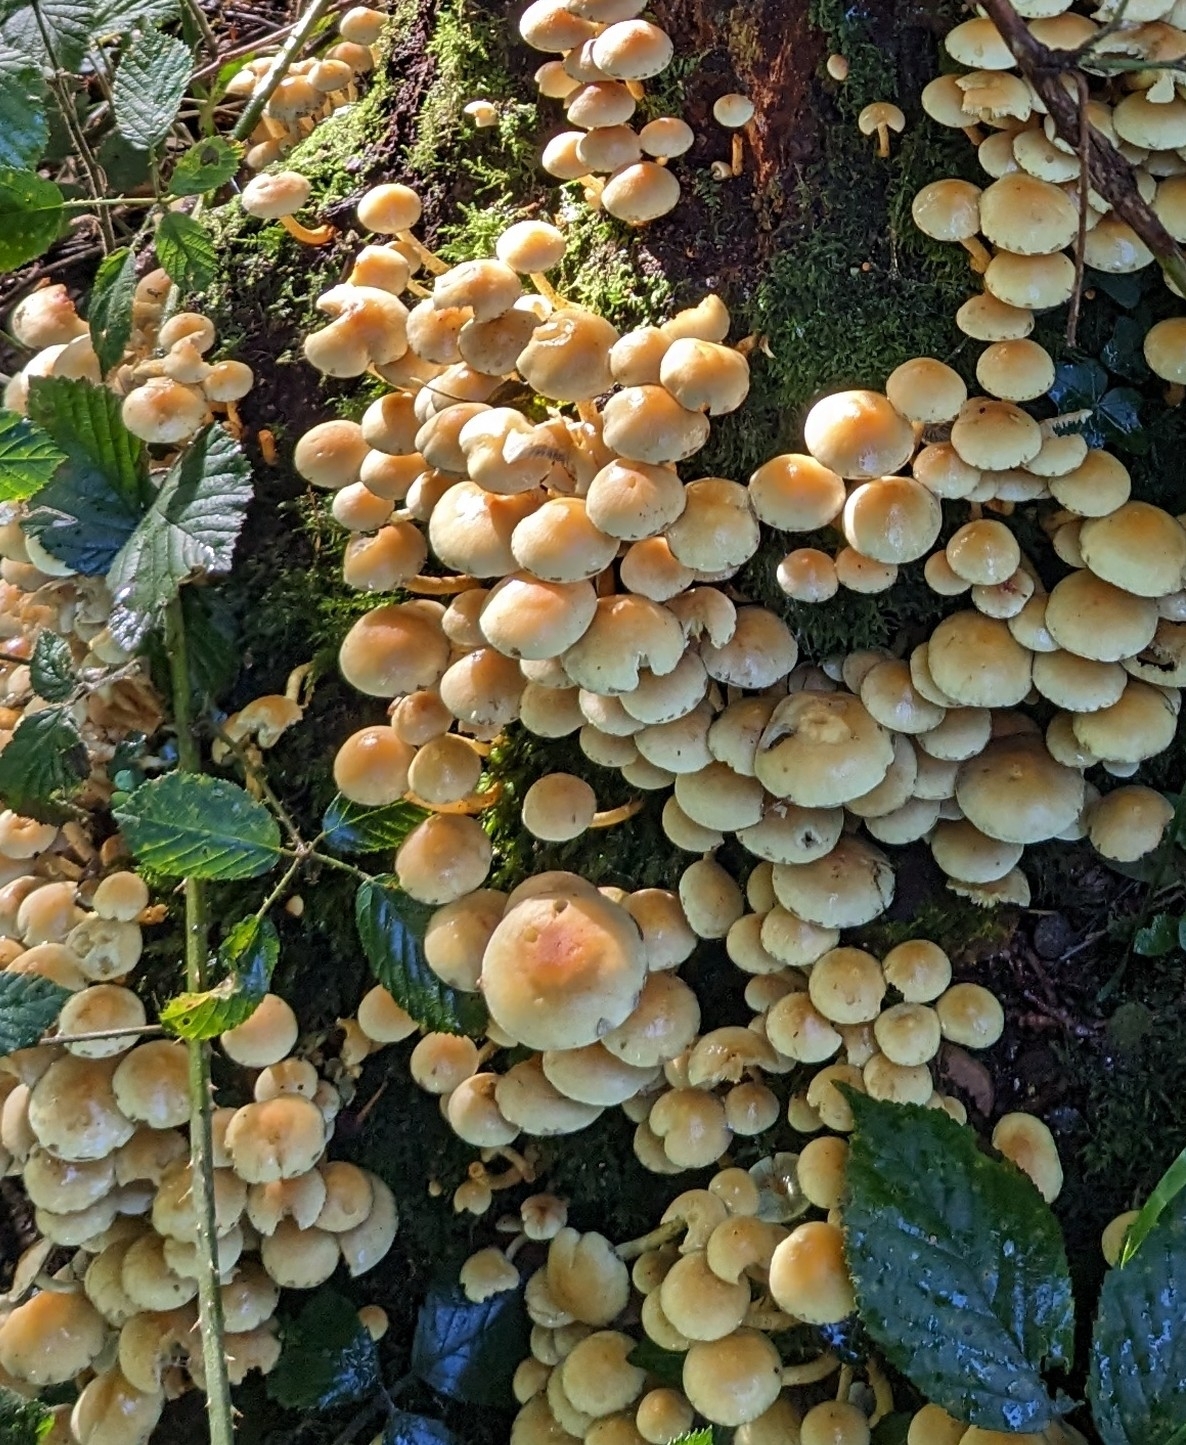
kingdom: Fungi
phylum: Basidiomycota
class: Agaricomycetes
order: Agaricales
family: Strophariaceae
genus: Hypholoma
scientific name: Hypholoma fasciculare
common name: Sulphur tuft
